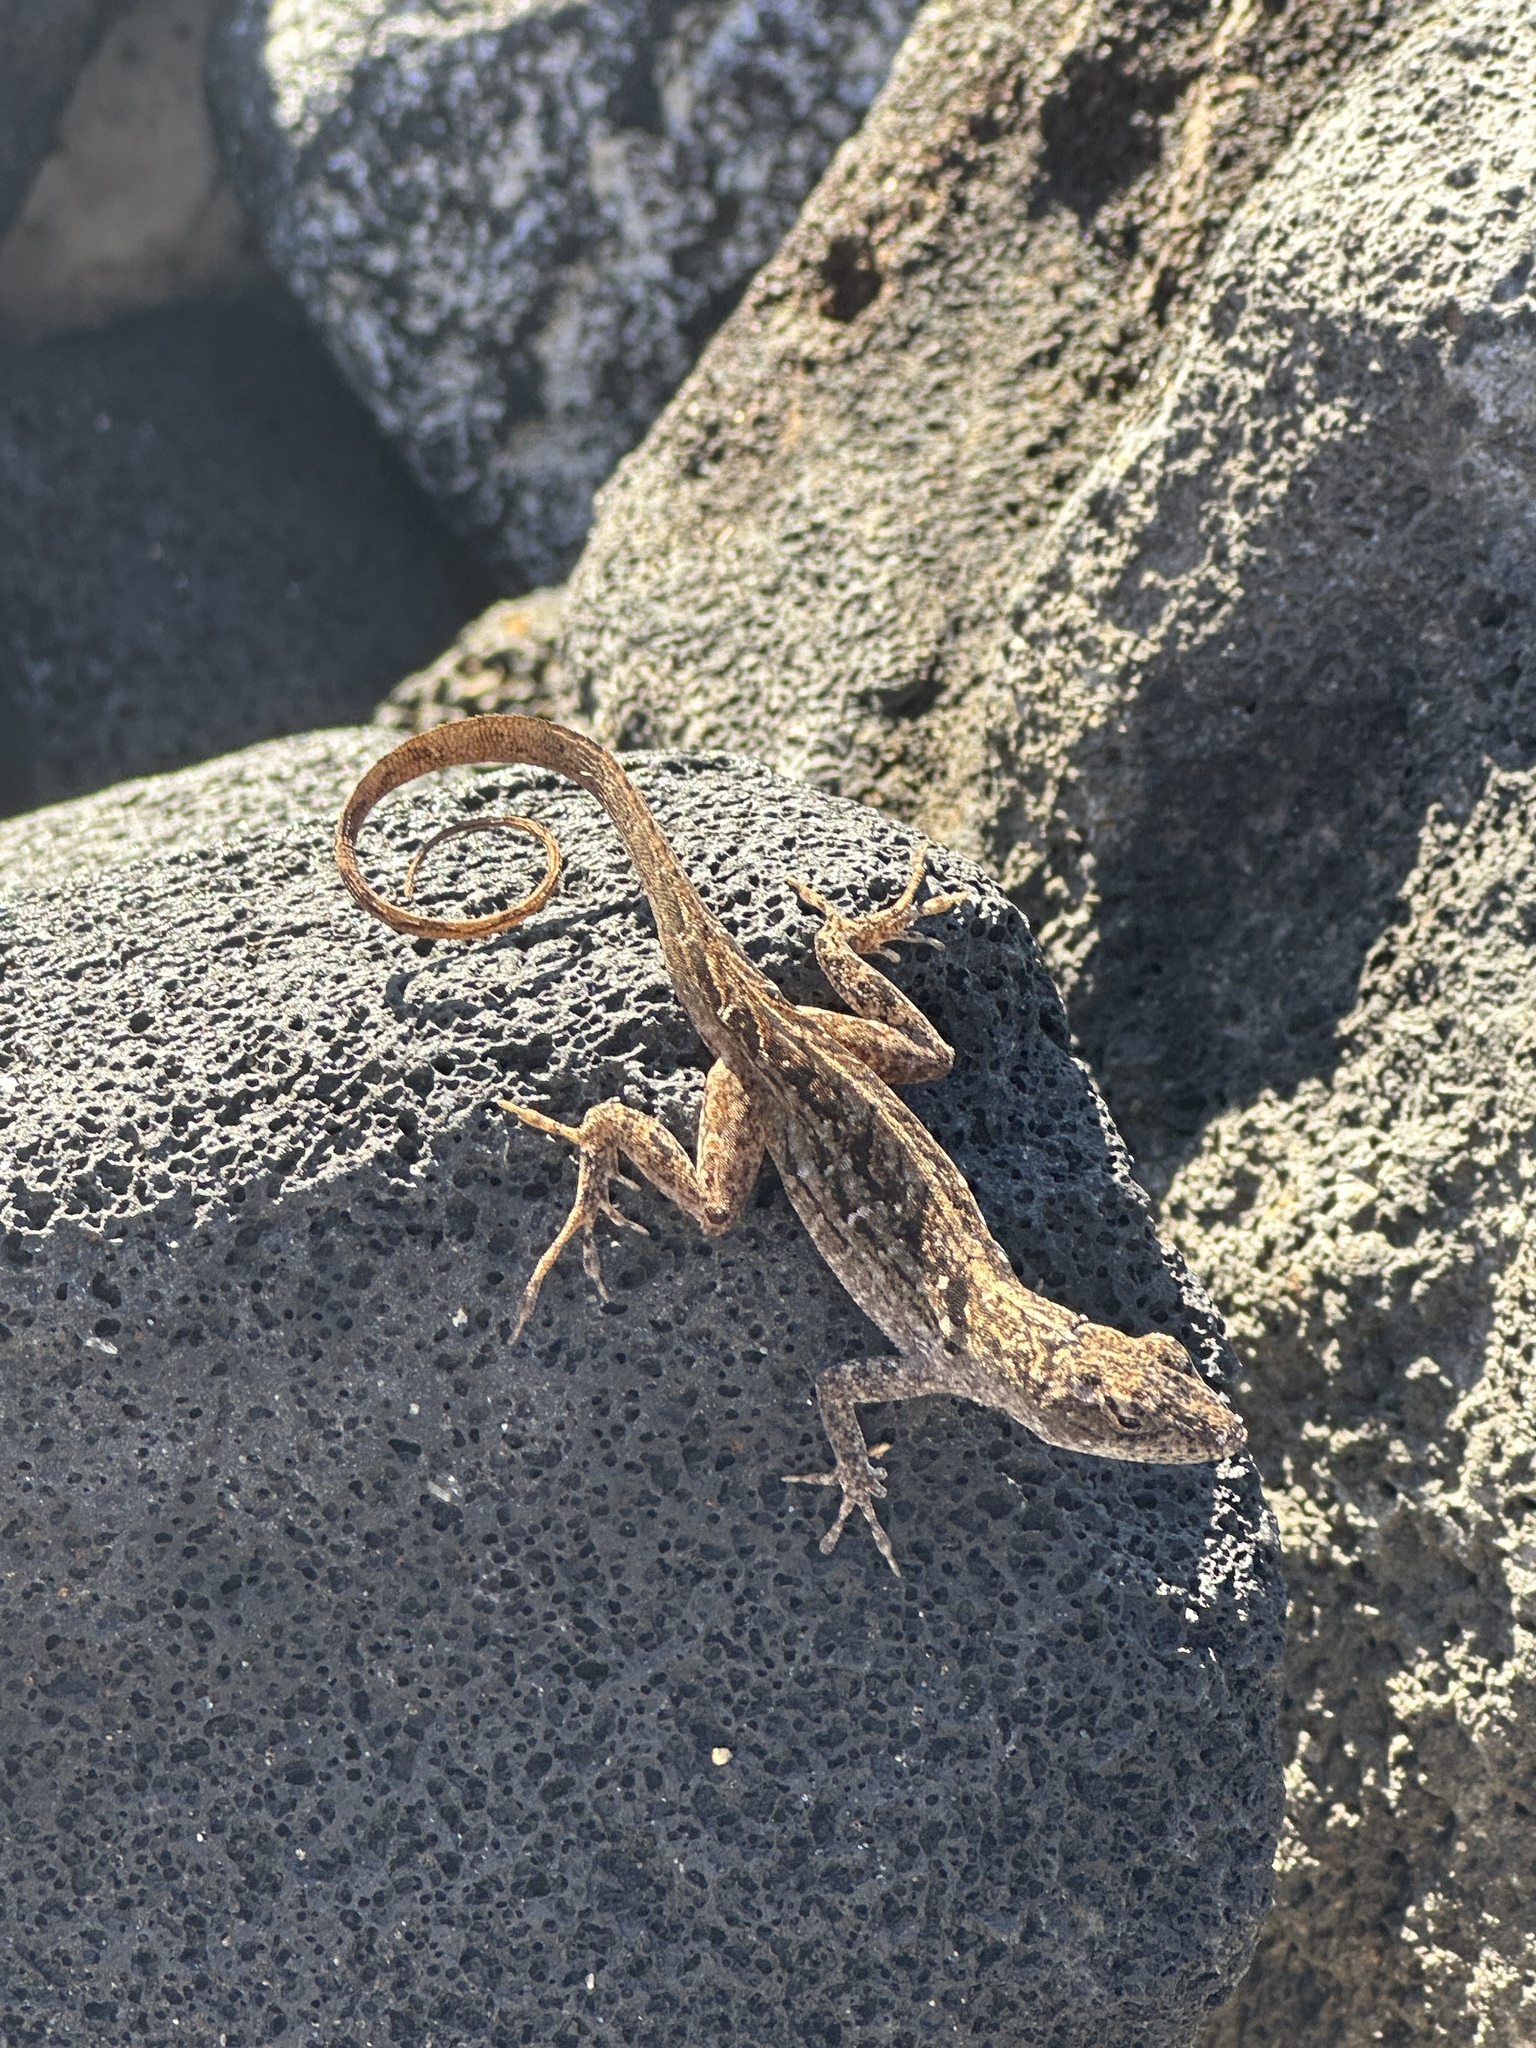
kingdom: Animalia
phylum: Chordata
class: Squamata
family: Dactyloidae
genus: Anolis
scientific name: Anolis sagrei
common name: Brown anole
